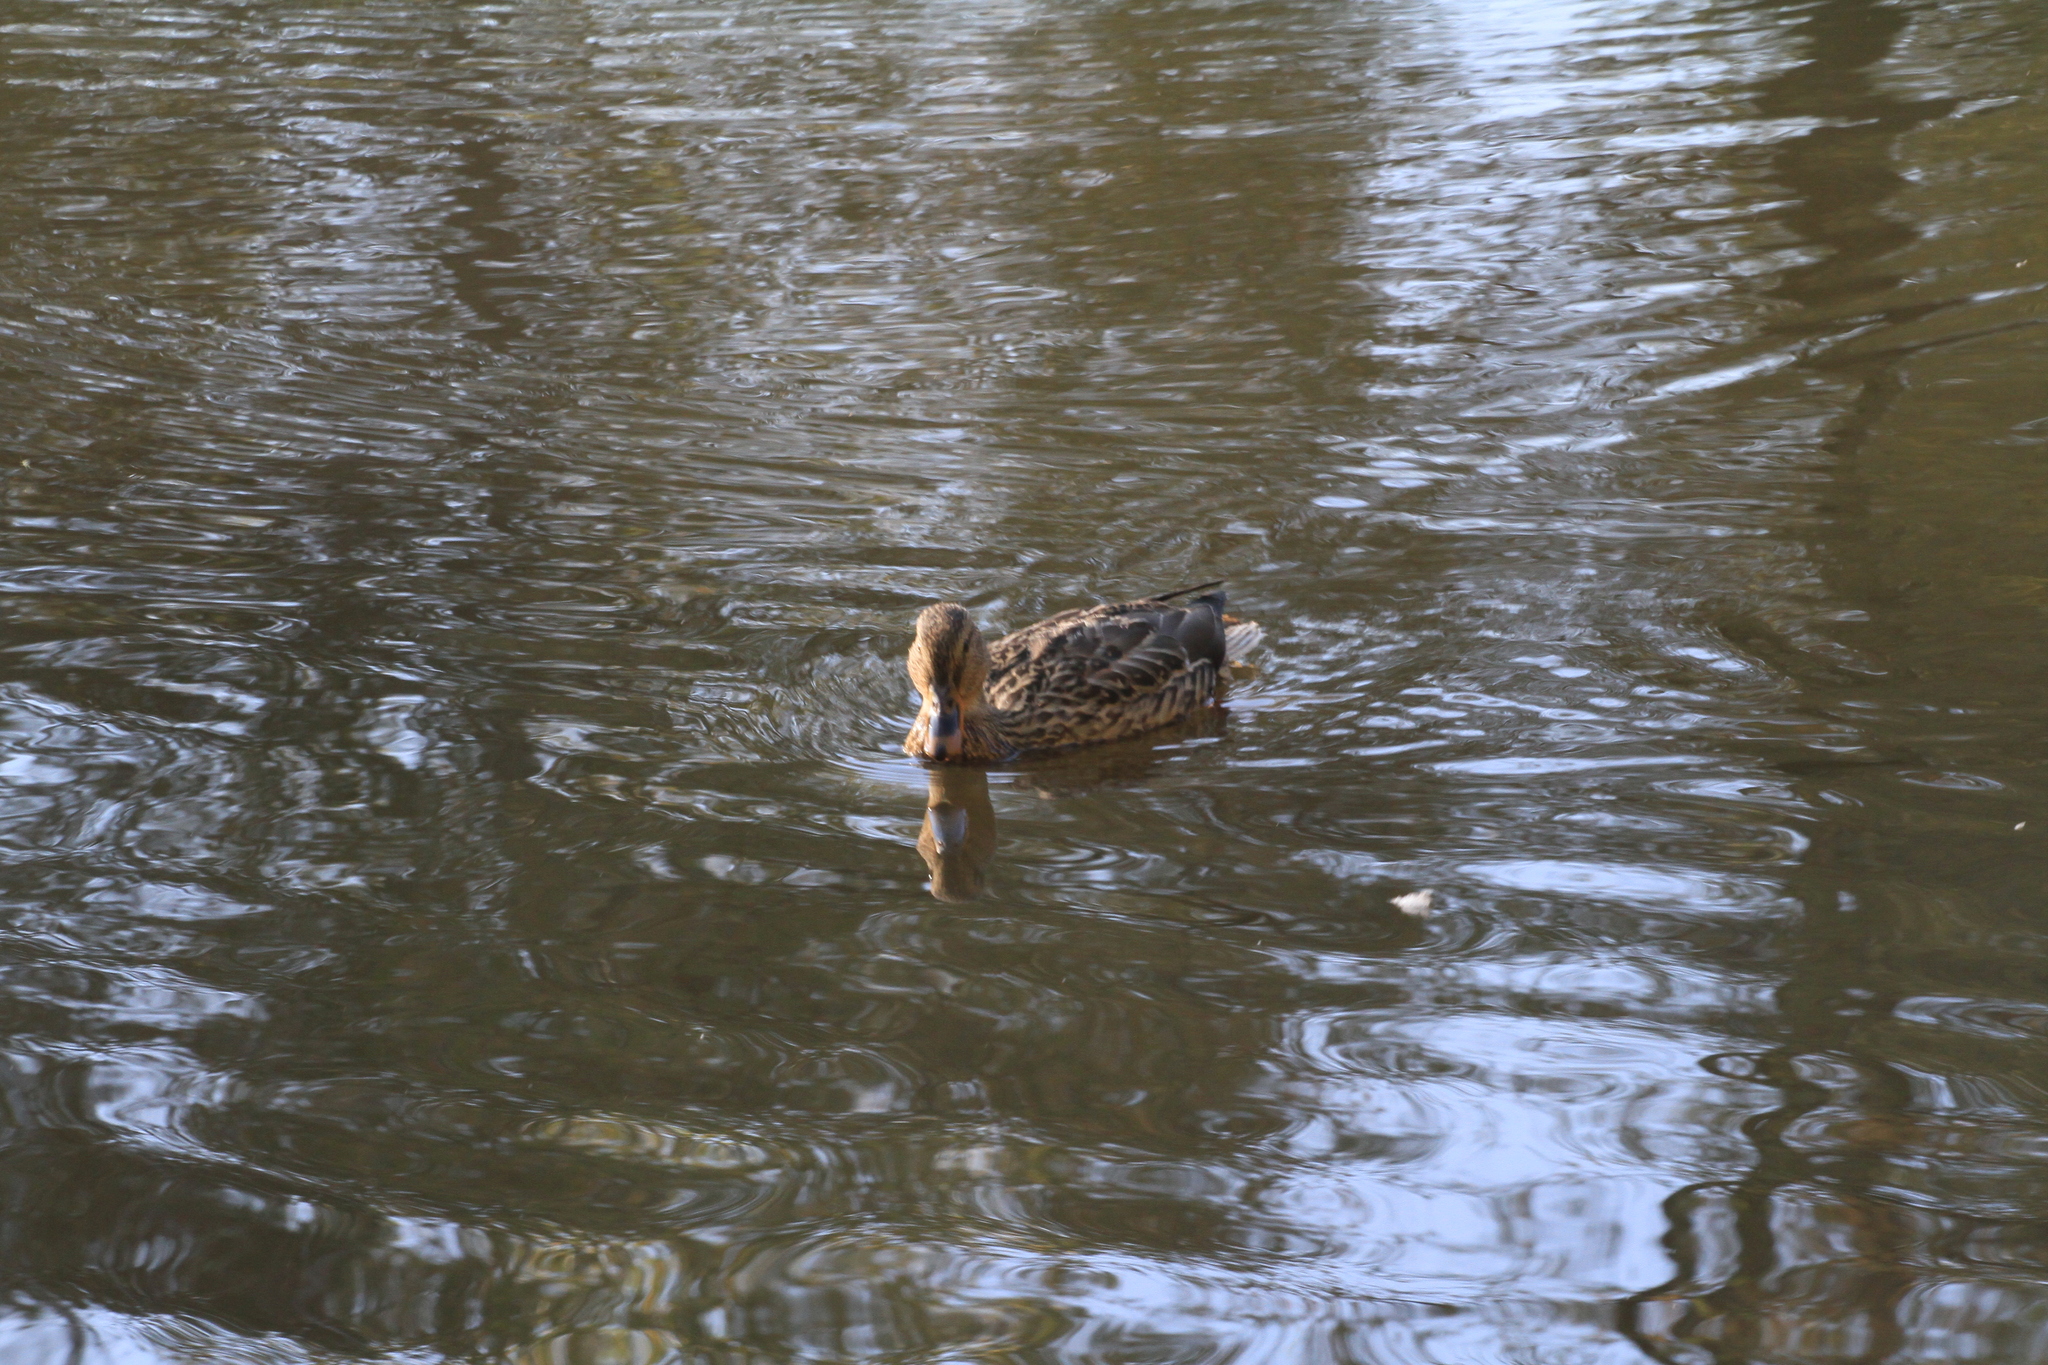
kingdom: Animalia
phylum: Chordata
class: Aves
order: Anseriformes
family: Anatidae
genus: Anas
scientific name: Anas platyrhynchos
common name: Mallard
